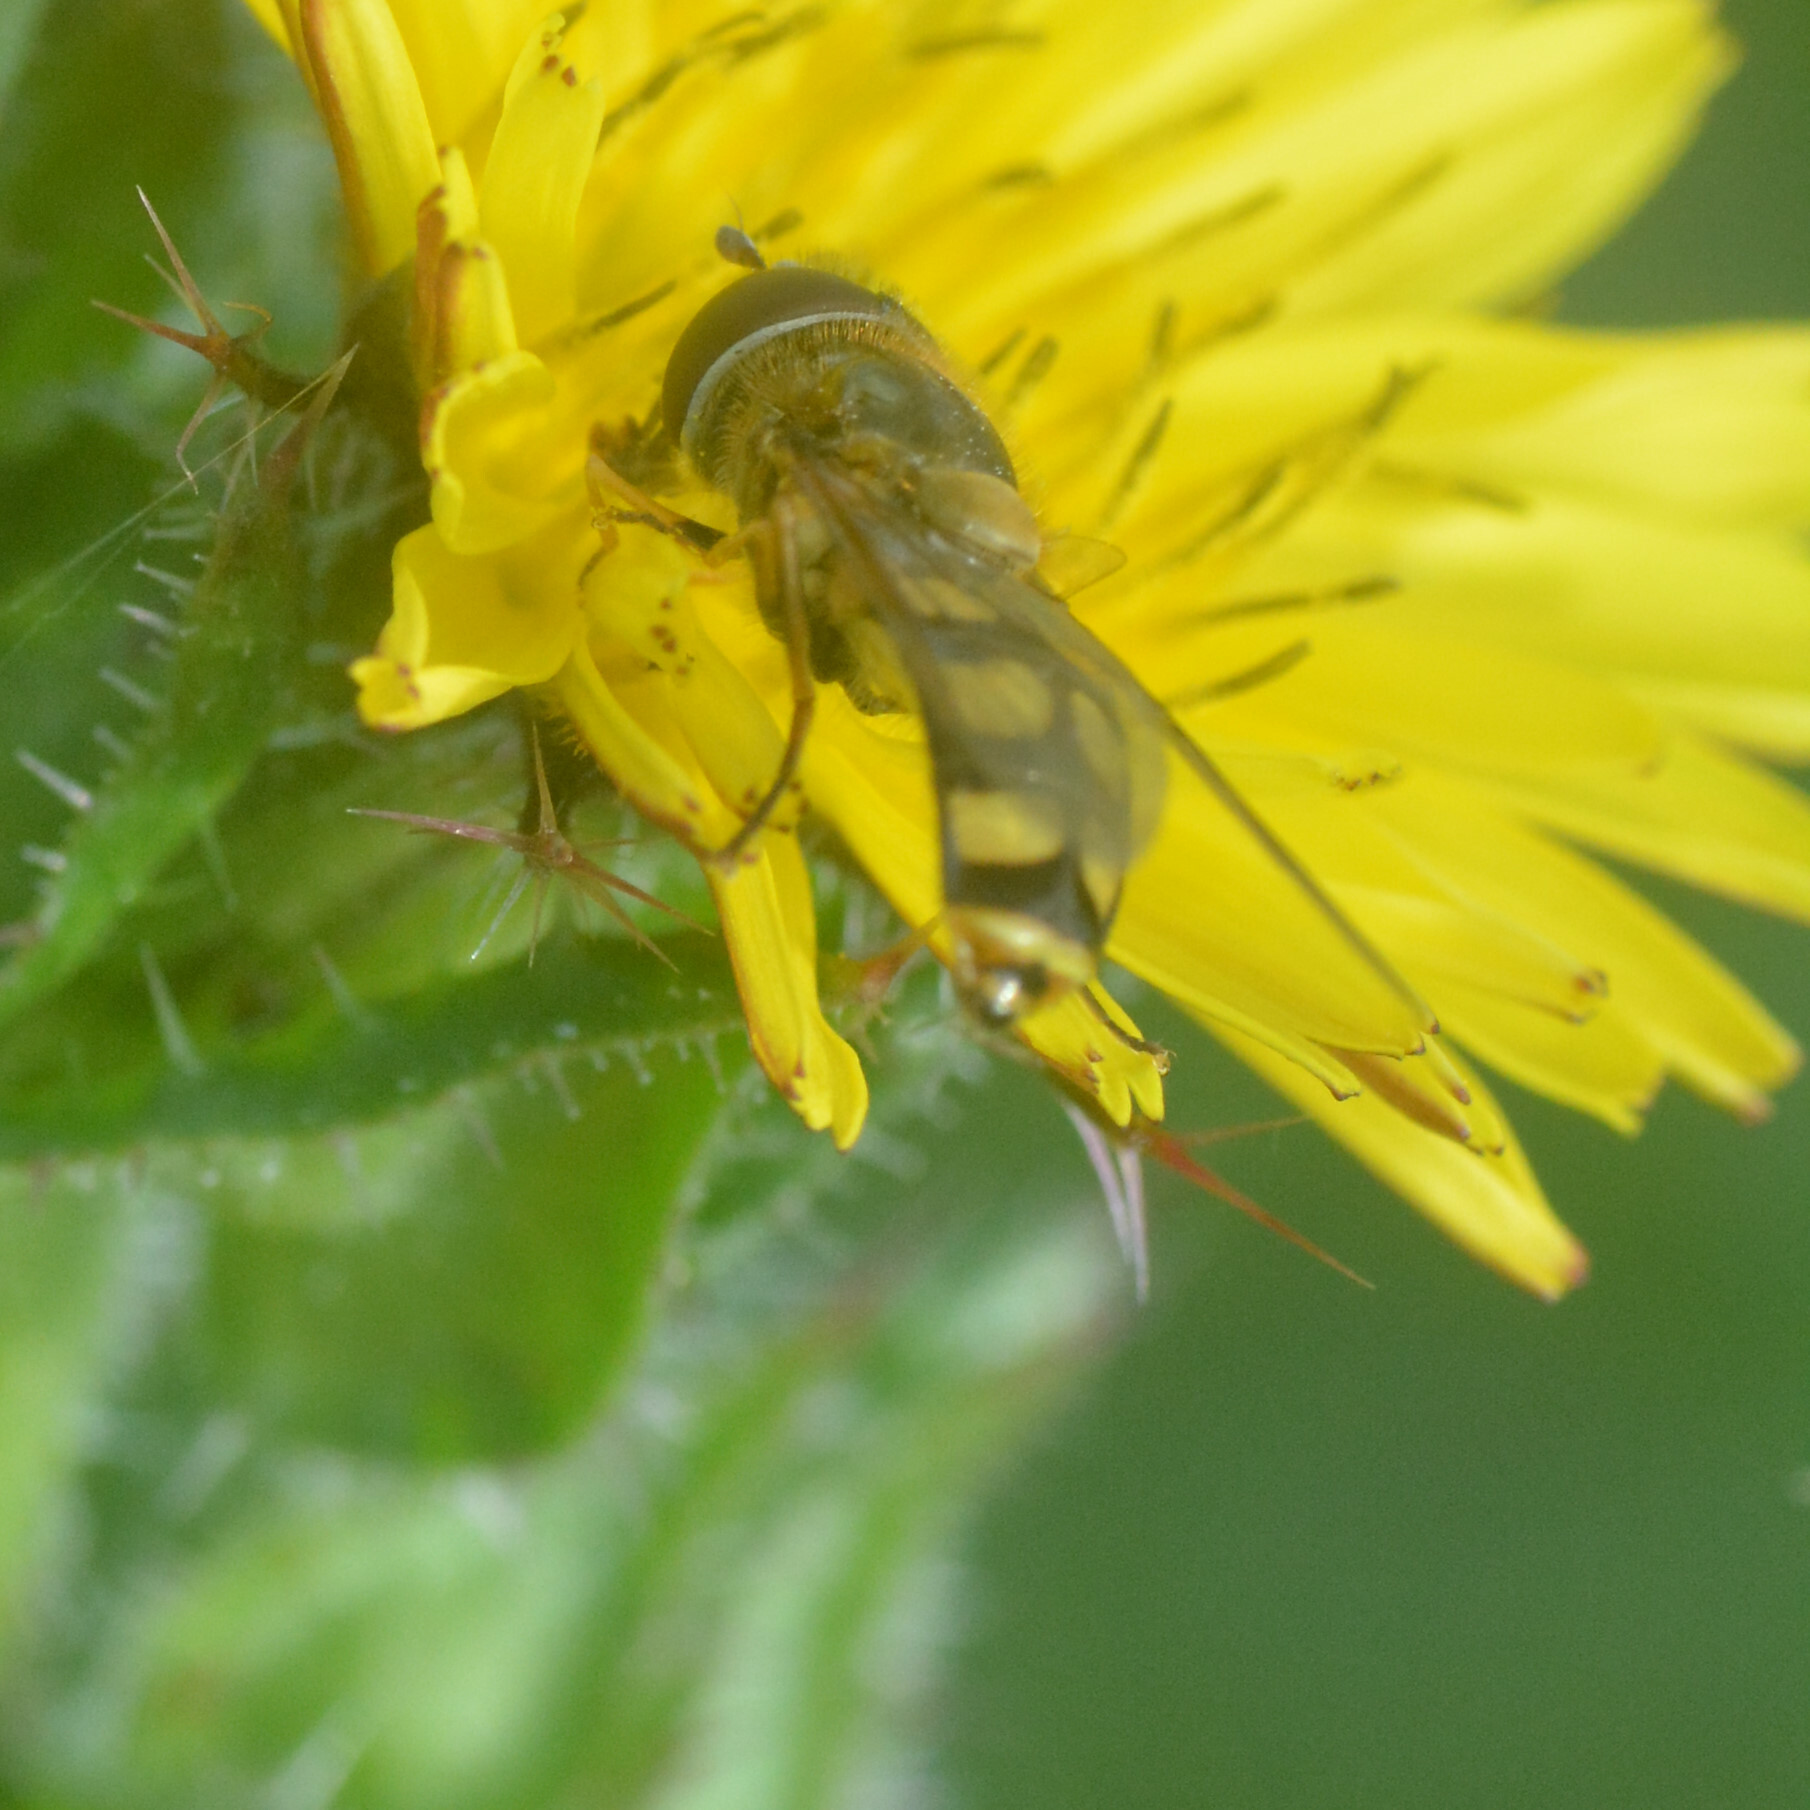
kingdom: Animalia
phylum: Arthropoda
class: Insecta
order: Diptera
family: Syrphidae
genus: Eupeodes
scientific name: Eupeodes
